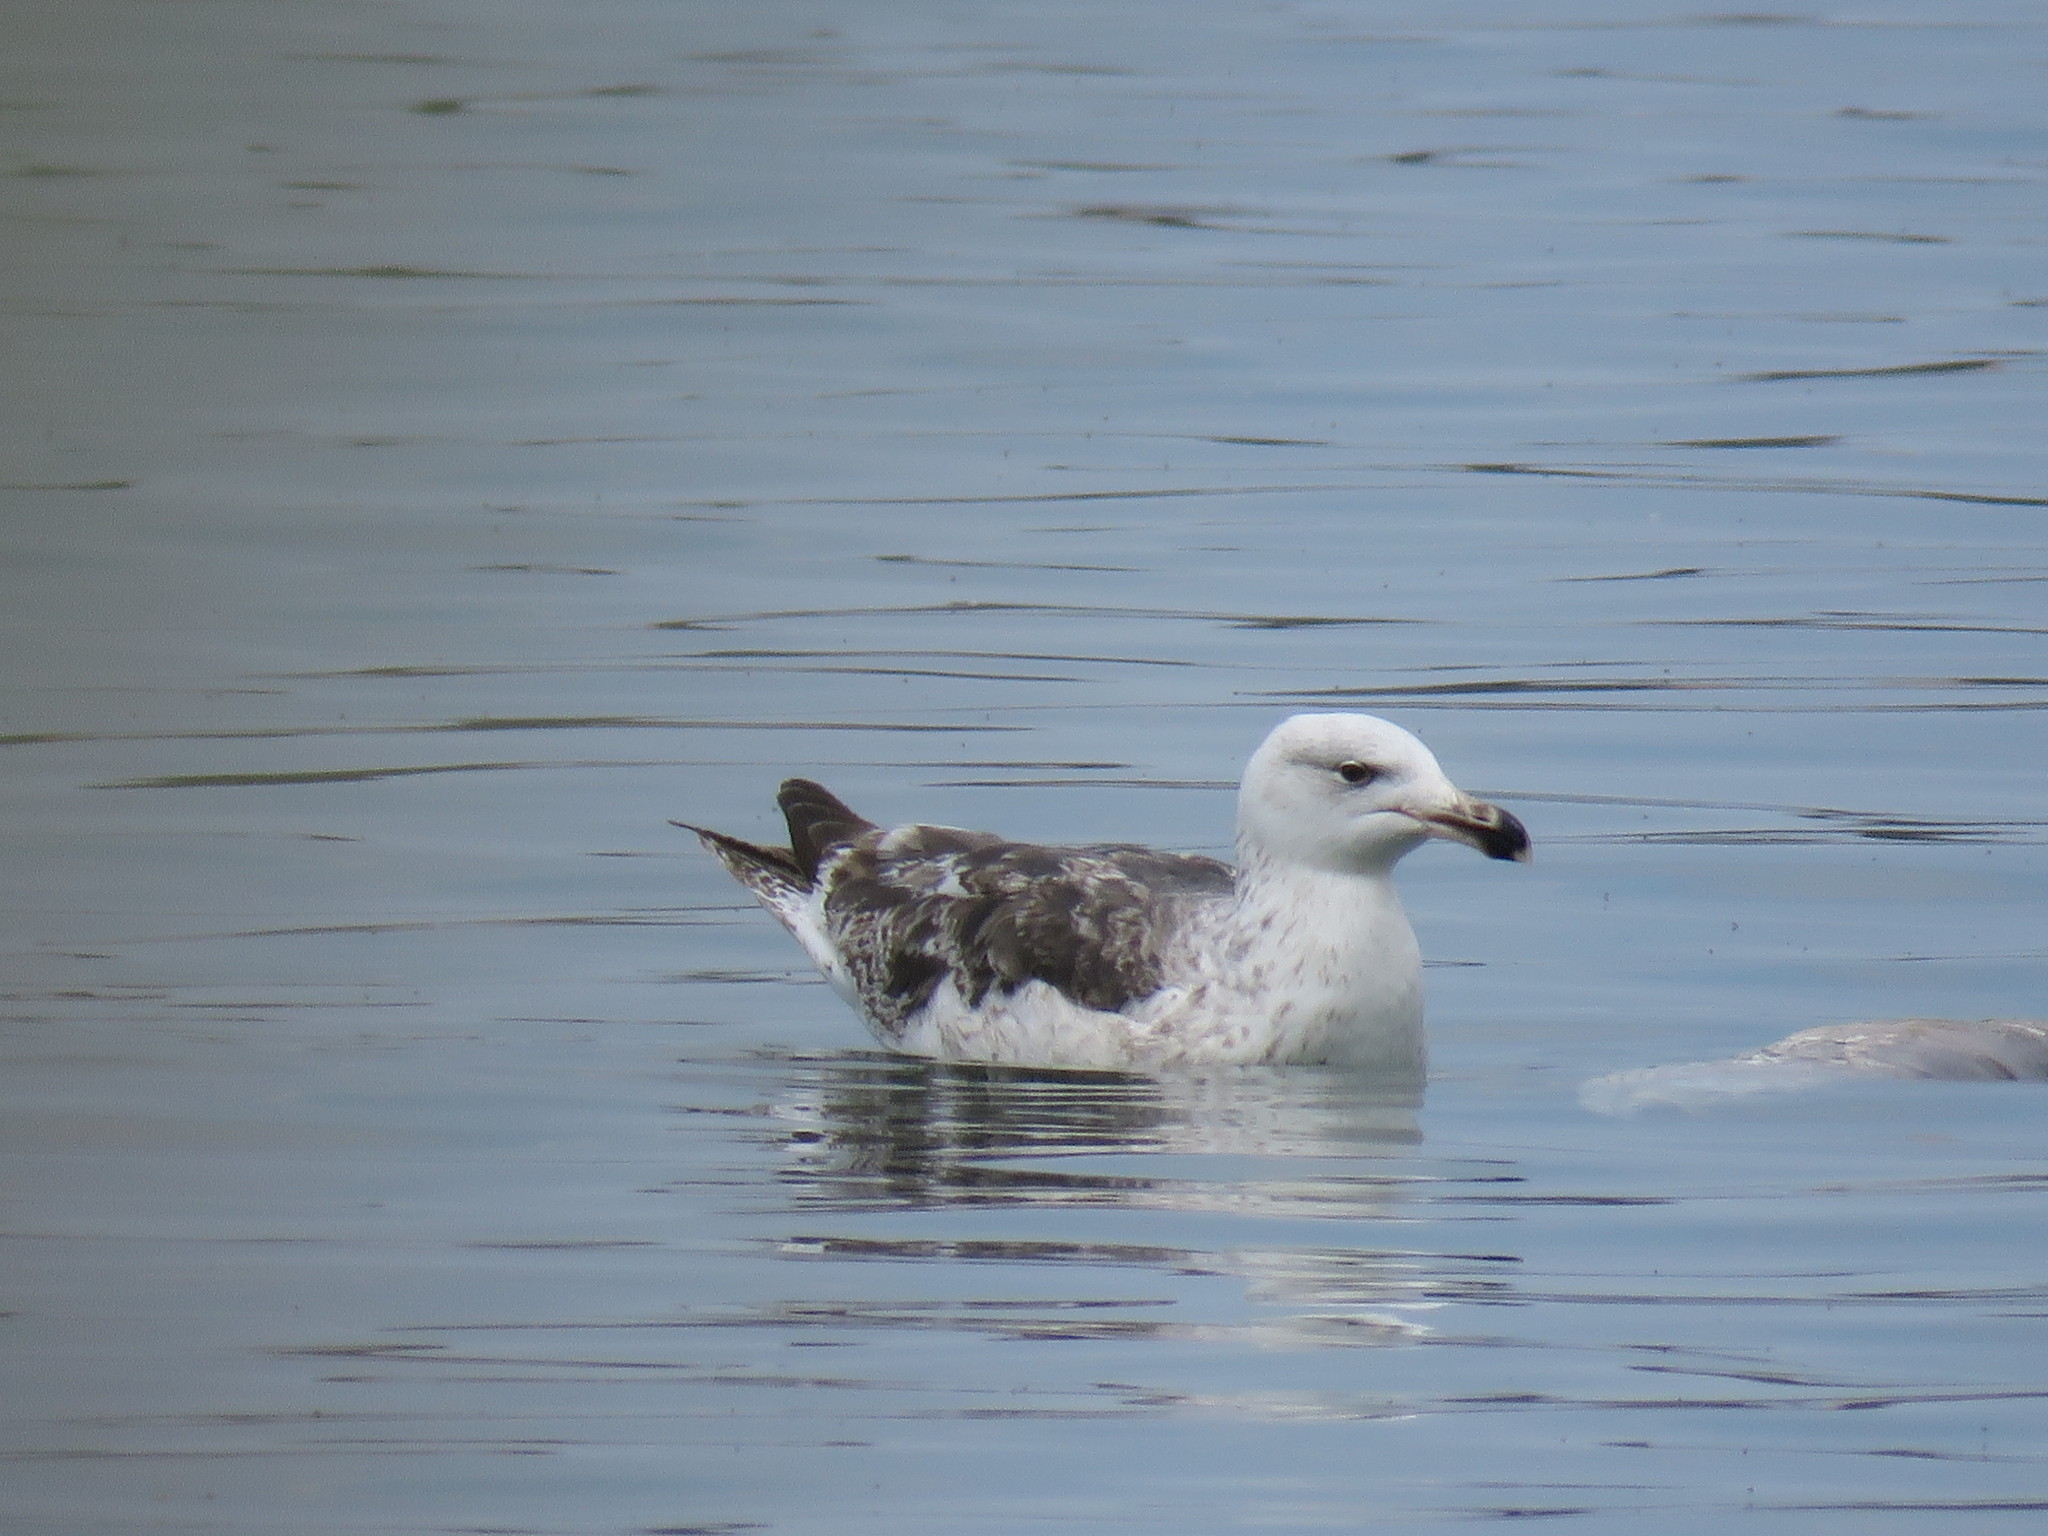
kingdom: Animalia
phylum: Chordata
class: Aves
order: Charadriiformes
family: Laridae
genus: Larus
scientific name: Larus marinus
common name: Great black-backed gull
